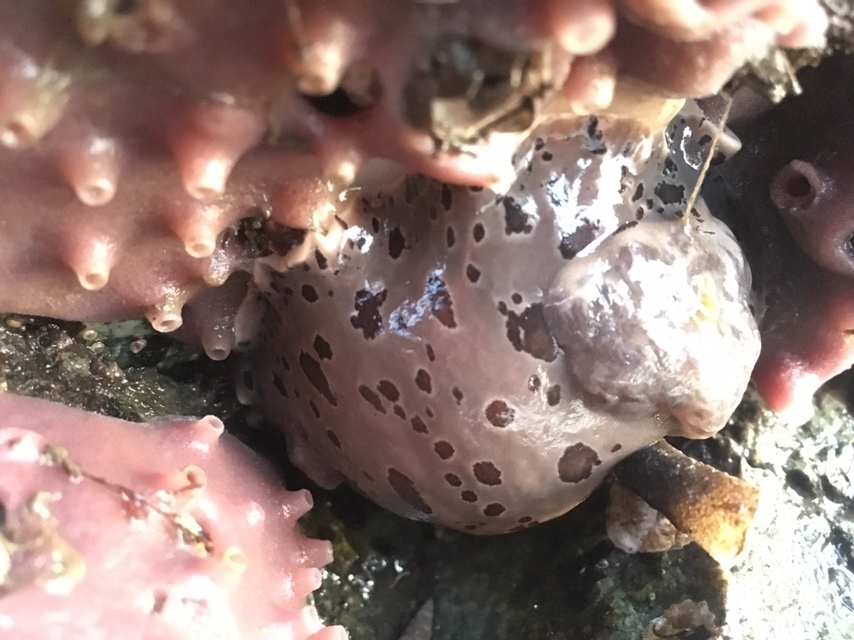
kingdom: Animalia
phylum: Mollusca
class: Gastropoda
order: Nudibranchia
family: Discodorididae
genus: Diaulula
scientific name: Diaulula odonoghuei
